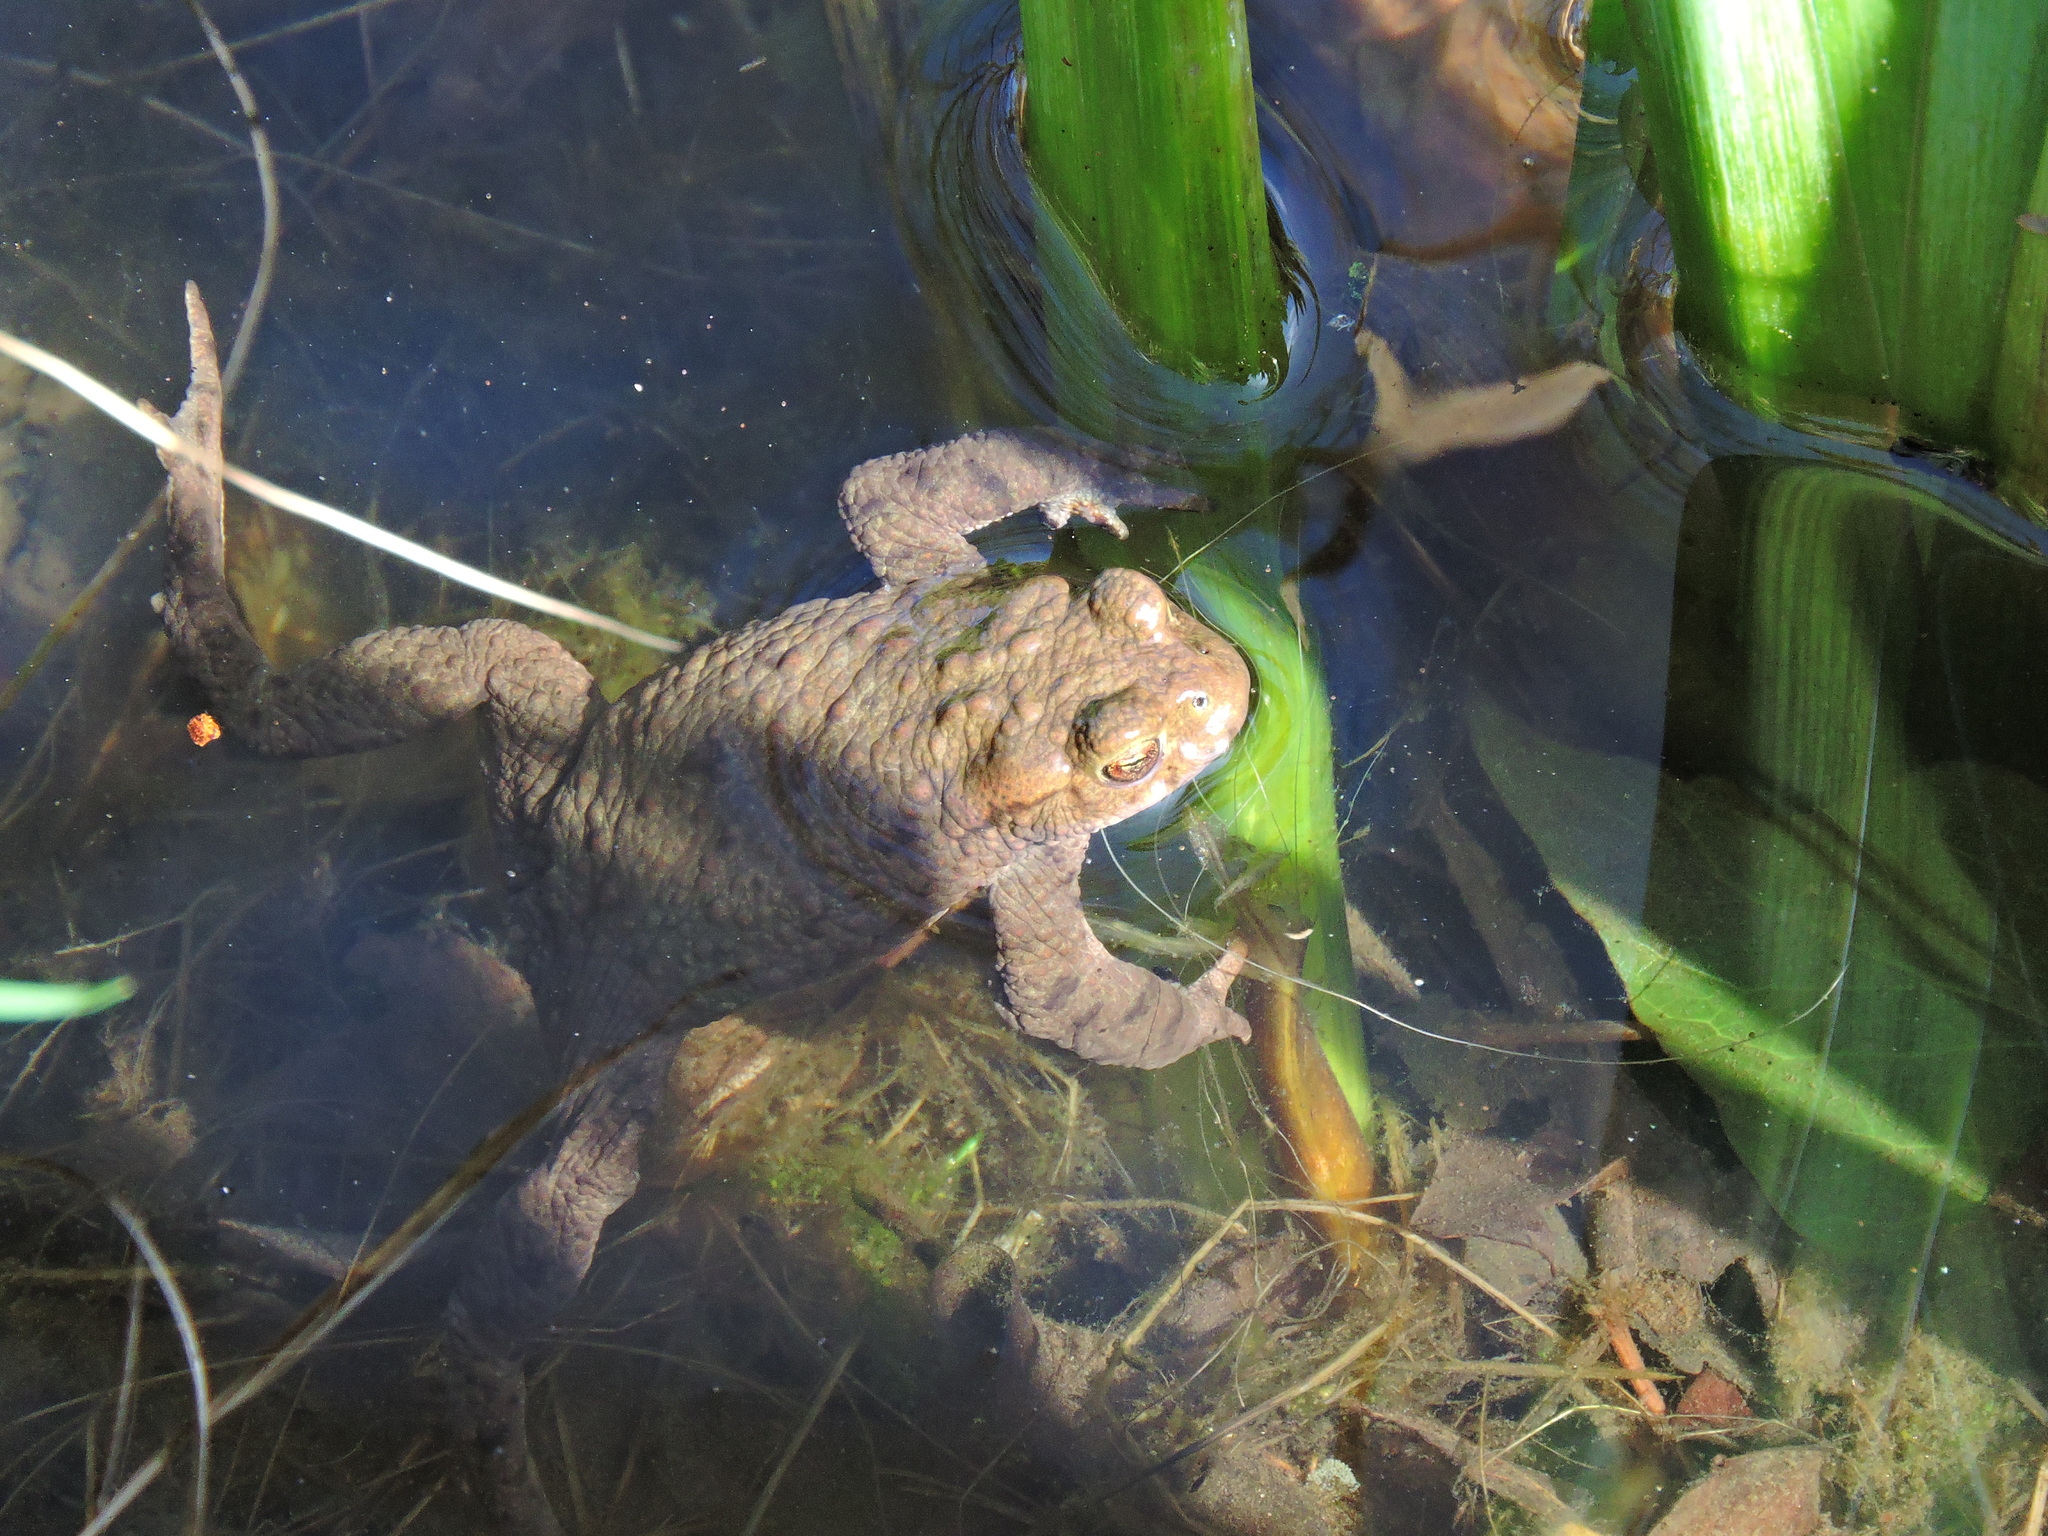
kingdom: Animalia
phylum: Chordata
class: Amphibia
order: Anura
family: Bufonidae
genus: Bufo
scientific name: Bufo bufo
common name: Common toad
